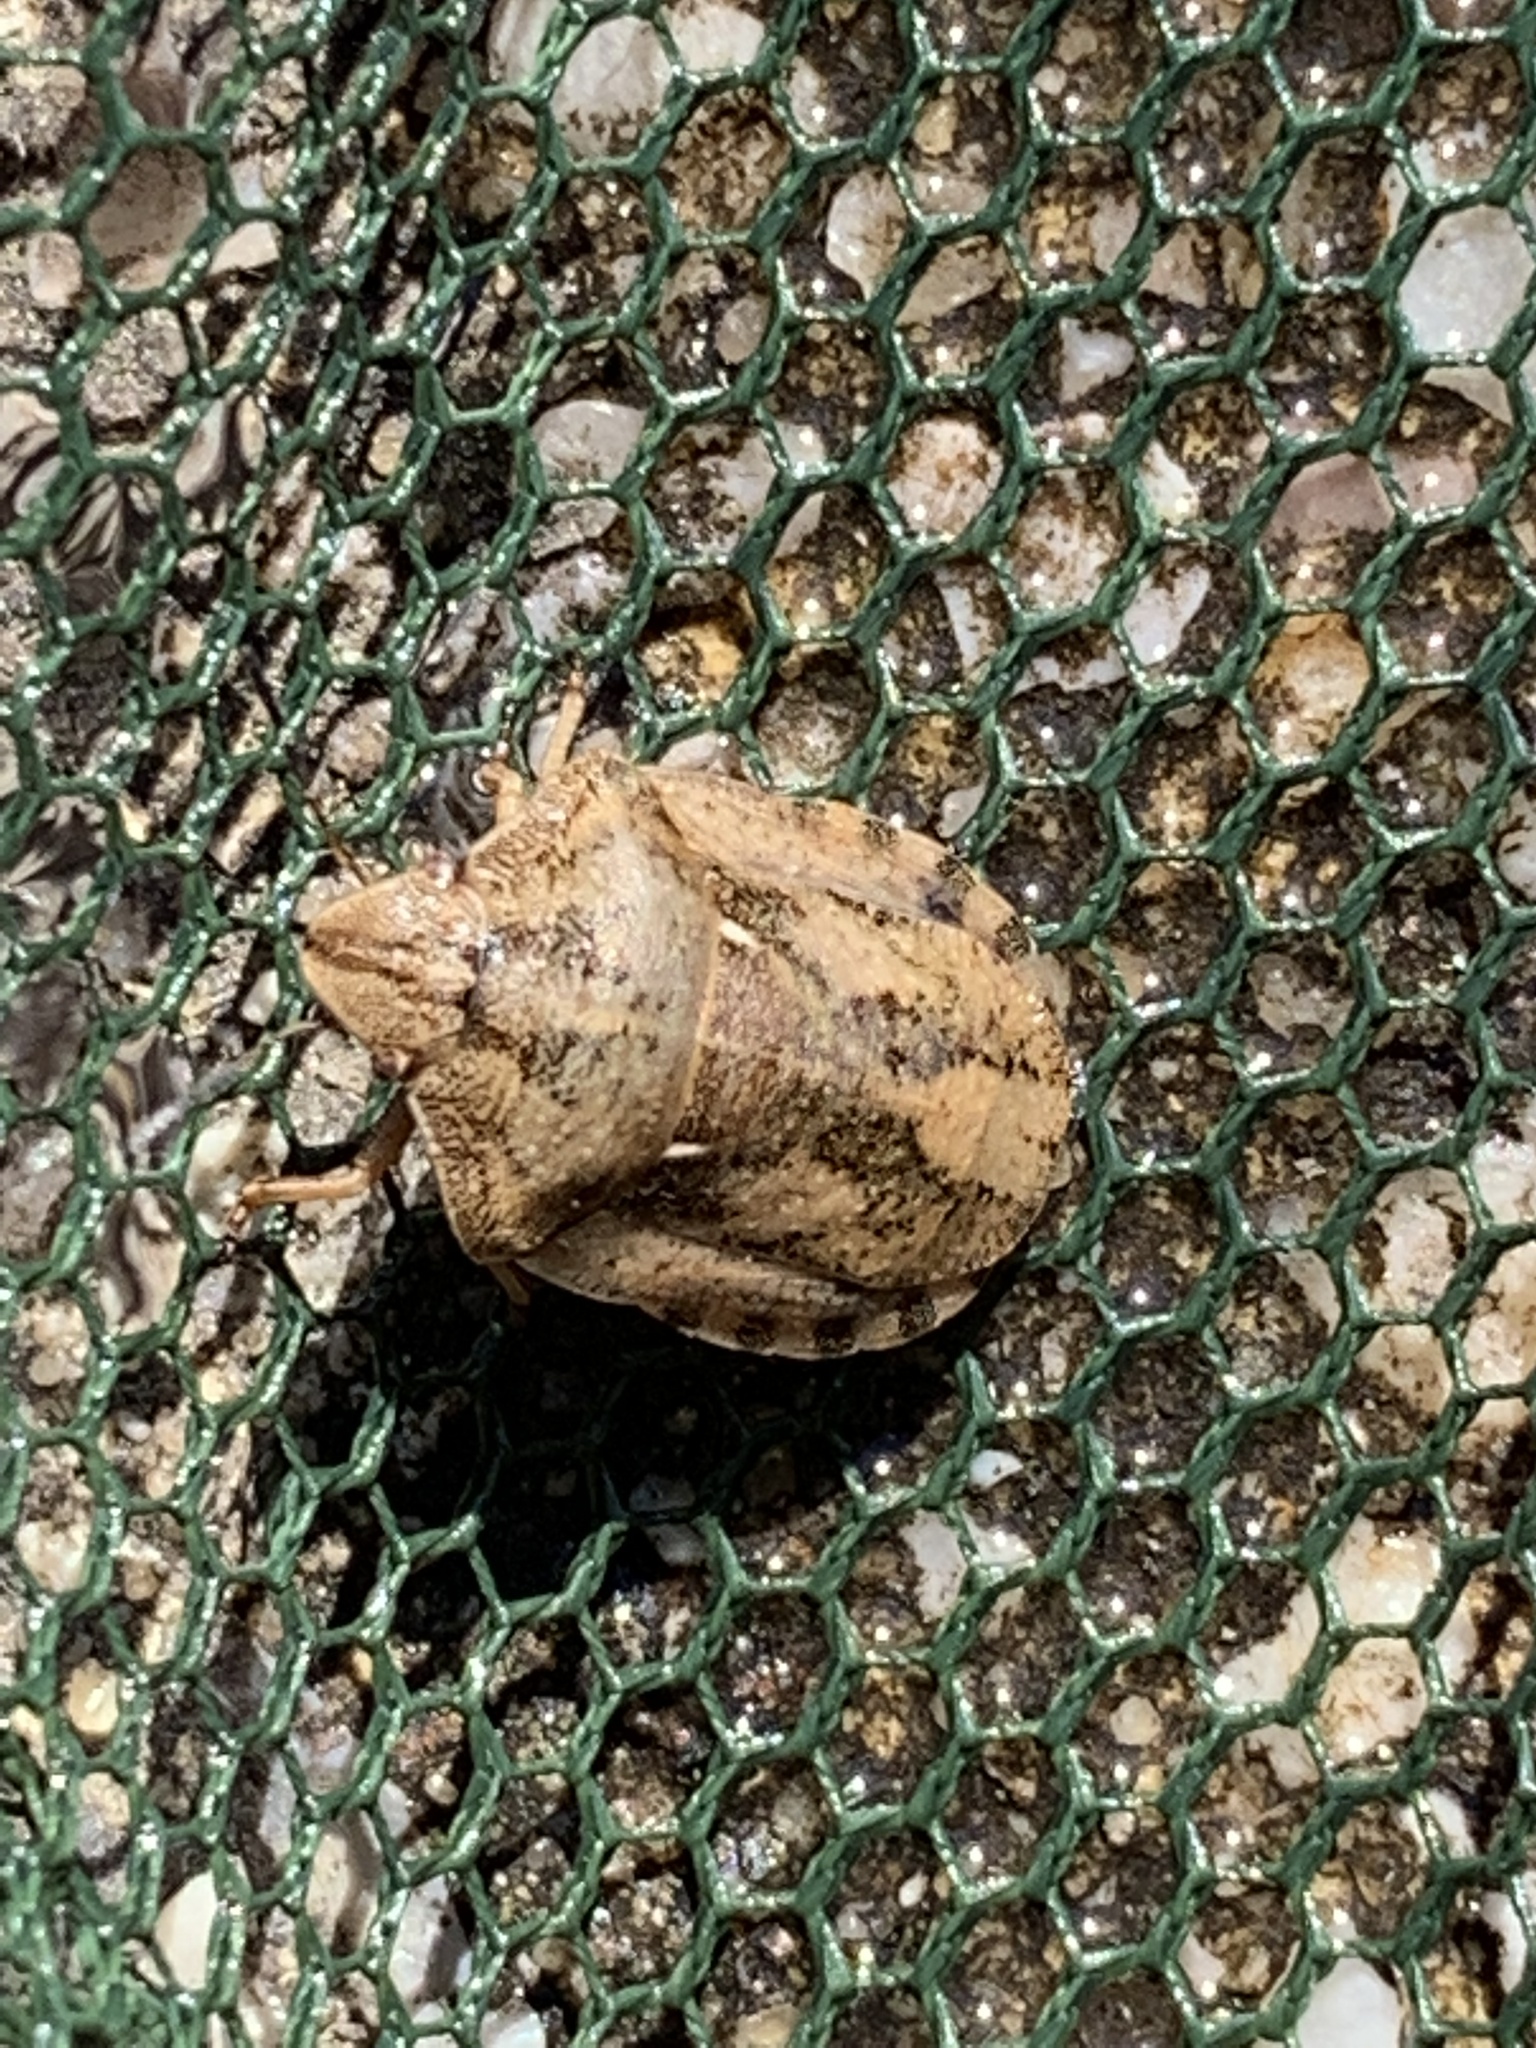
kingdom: Animalia
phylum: Arthropoda
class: Insecta
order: Hemiptera
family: Scutelleridae
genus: Eurygaster
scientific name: Eurygaster testudinaria
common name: Tortoise bug
